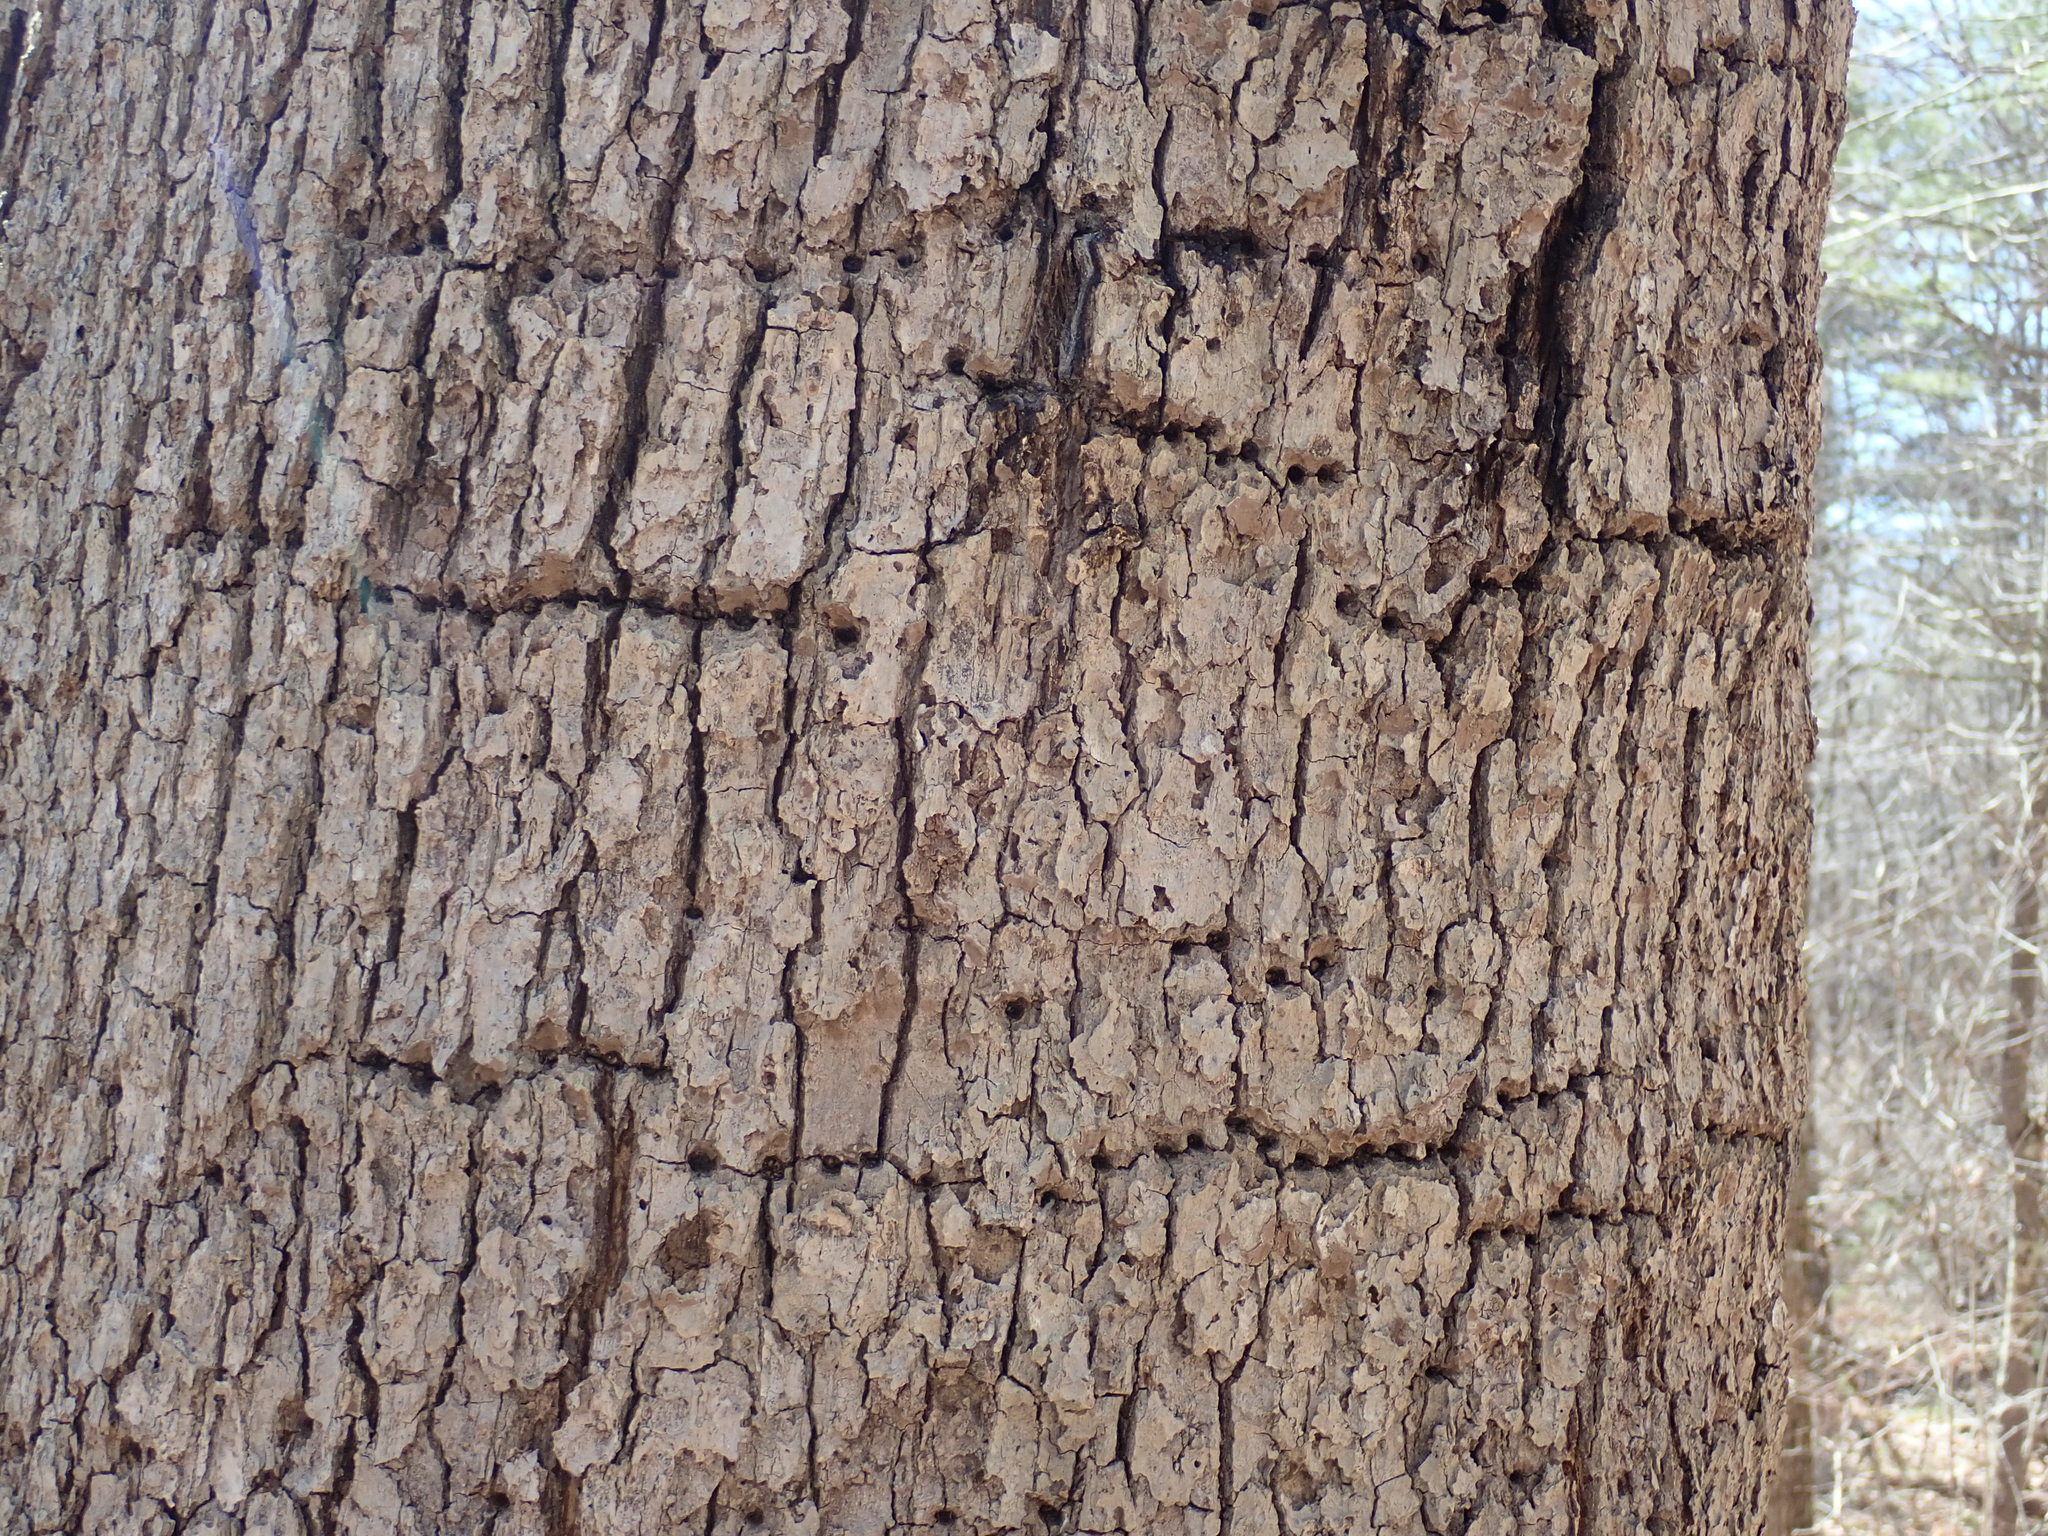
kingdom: Animalia
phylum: Chordata
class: Aves
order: Piciformes
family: Picidae
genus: Sphyrapicus
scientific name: Sphyrapicus varius
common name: Yellow-bellied sapsucker
